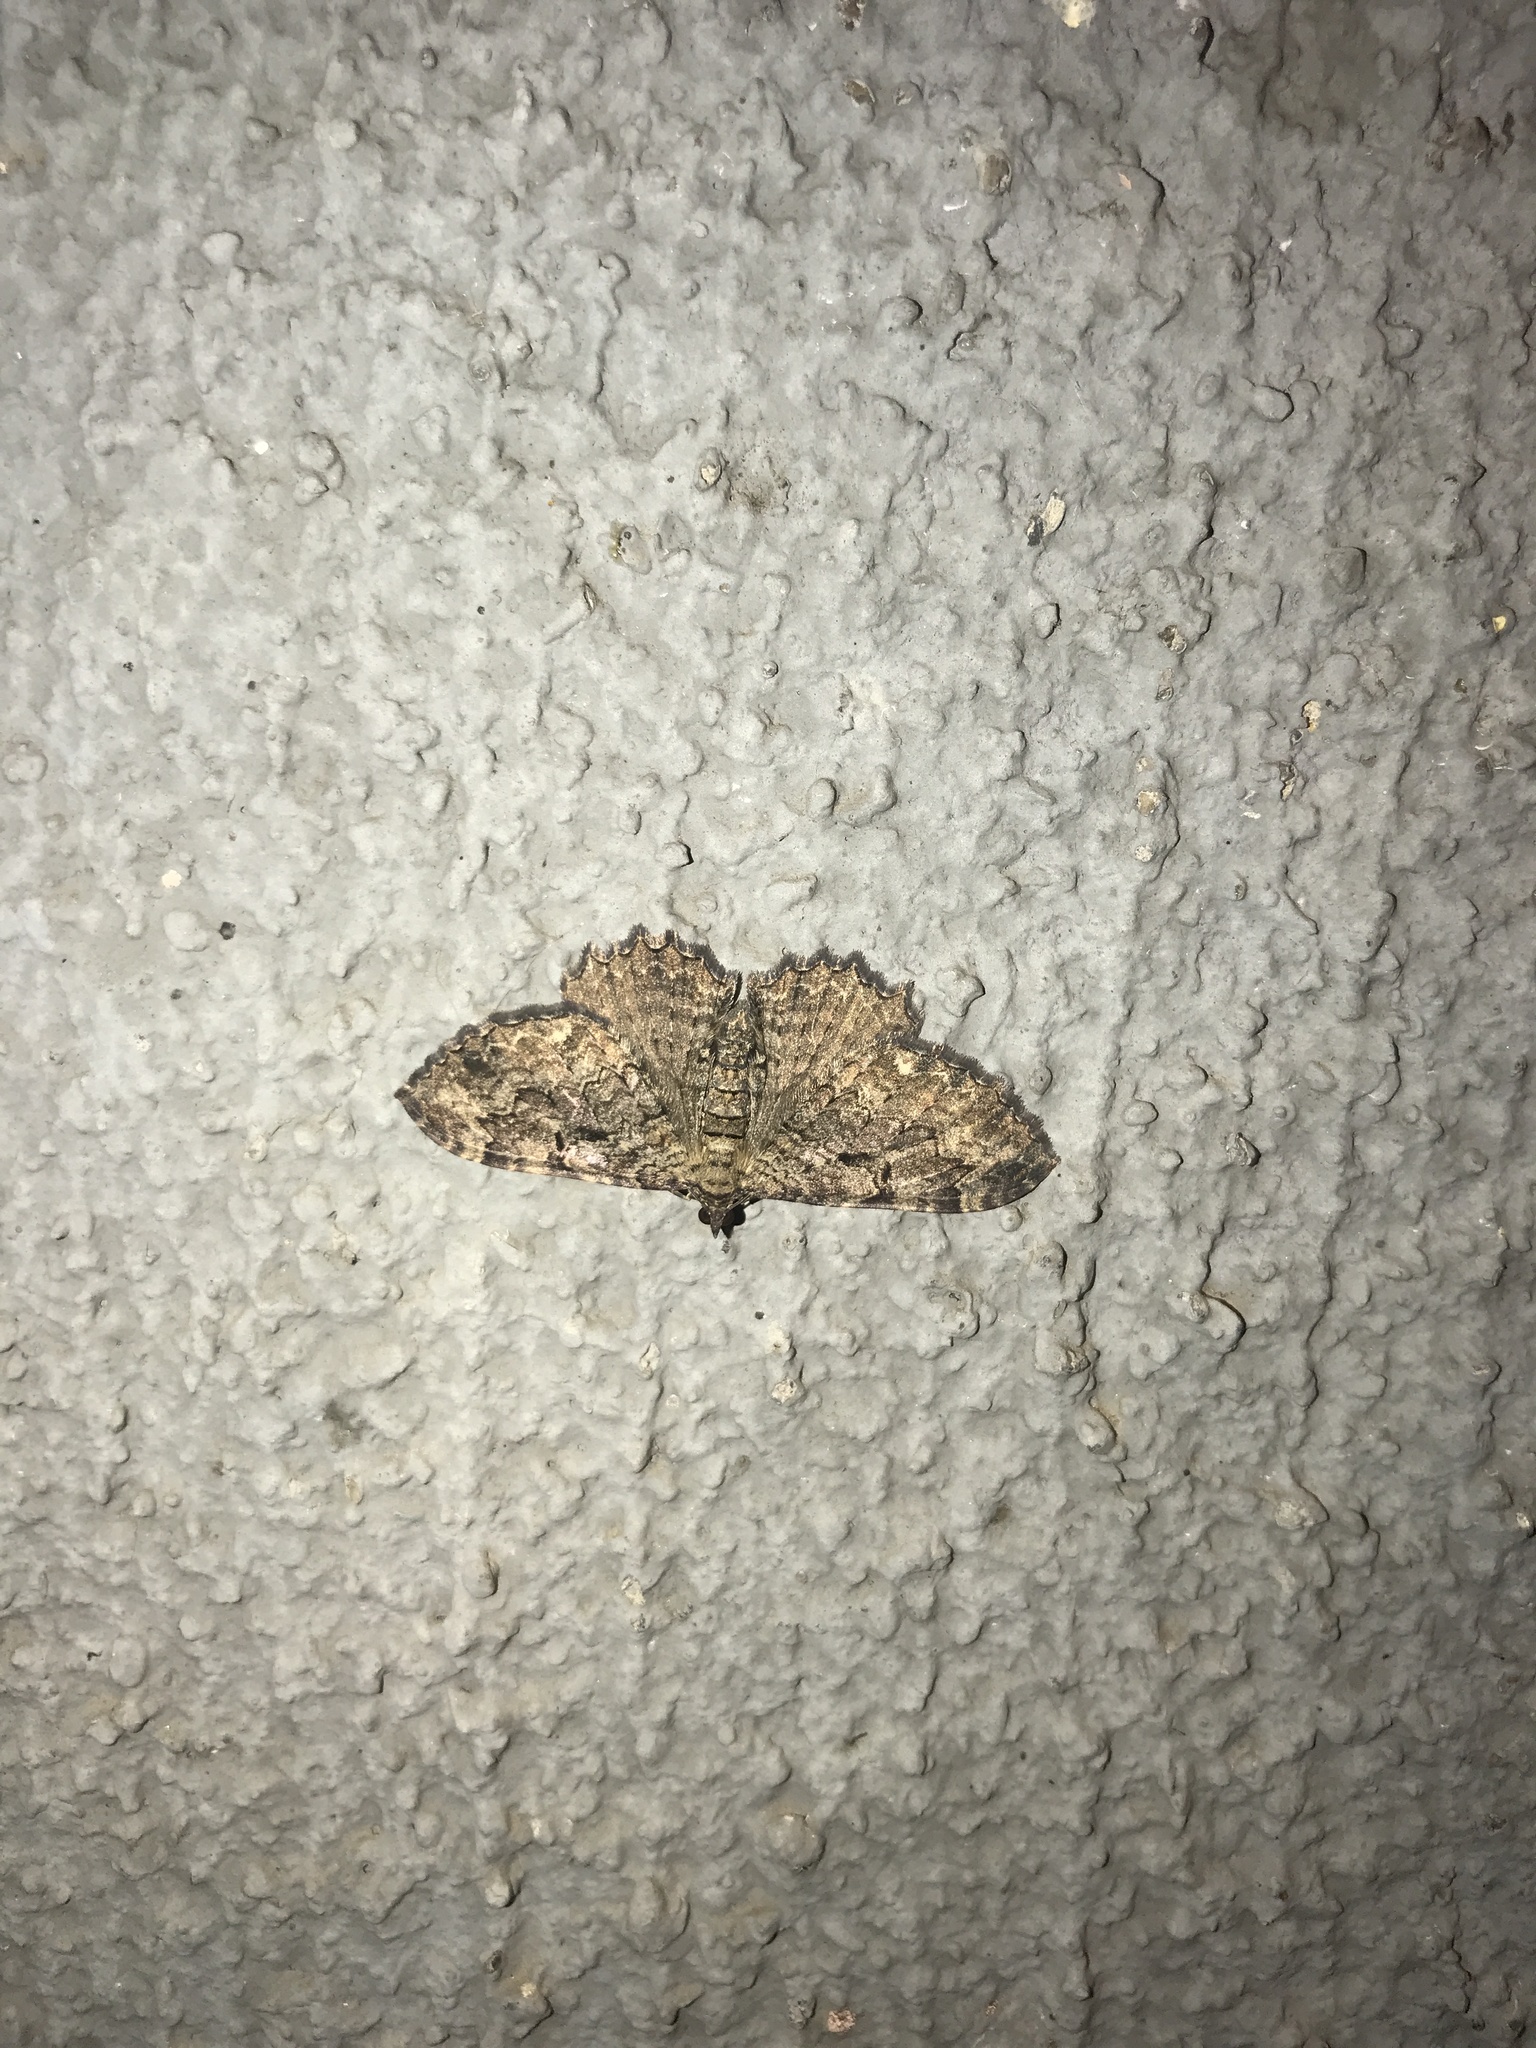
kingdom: Animalia
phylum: Arthropoda
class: Insecta
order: Lepidoptera
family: Geometridae
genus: Rheumaptera
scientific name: Rheumaptera
